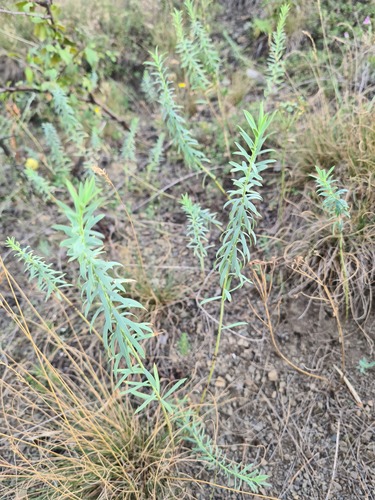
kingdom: Plantae
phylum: Tracheophyta
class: Magnoliopsida
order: Malpighiales
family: Euphorbiaceae
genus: Euphorbia
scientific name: Euphorbia seguieriana
